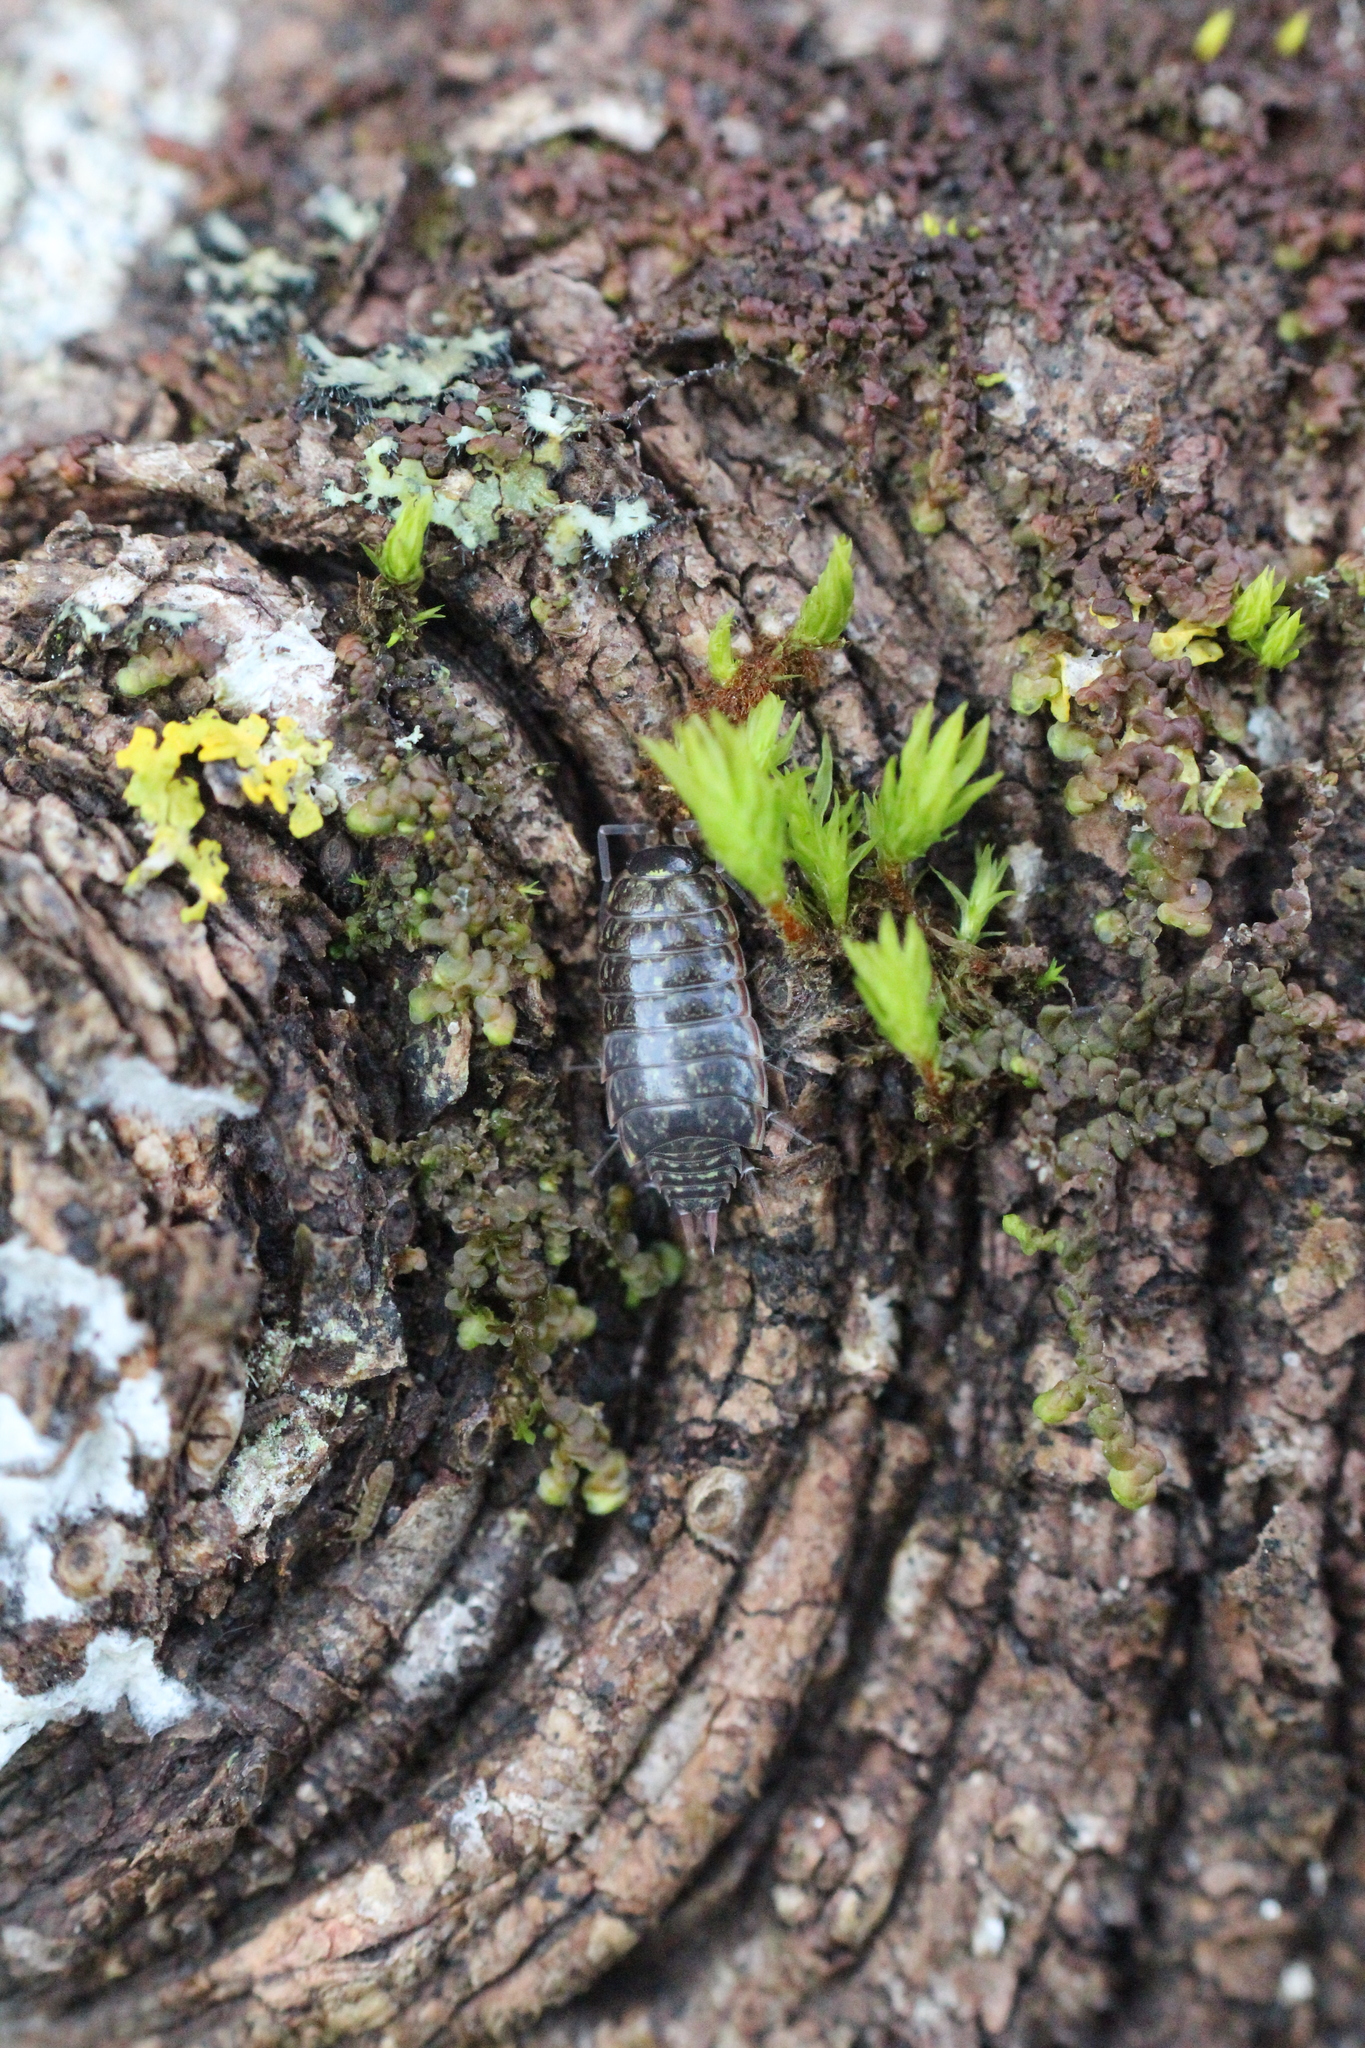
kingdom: Animalia
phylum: Arthropoda
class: Malacostraca
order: Isopoda
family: Philosciidae
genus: Philoscia
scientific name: Philoscia muscorum
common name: Common striped woodlouse
